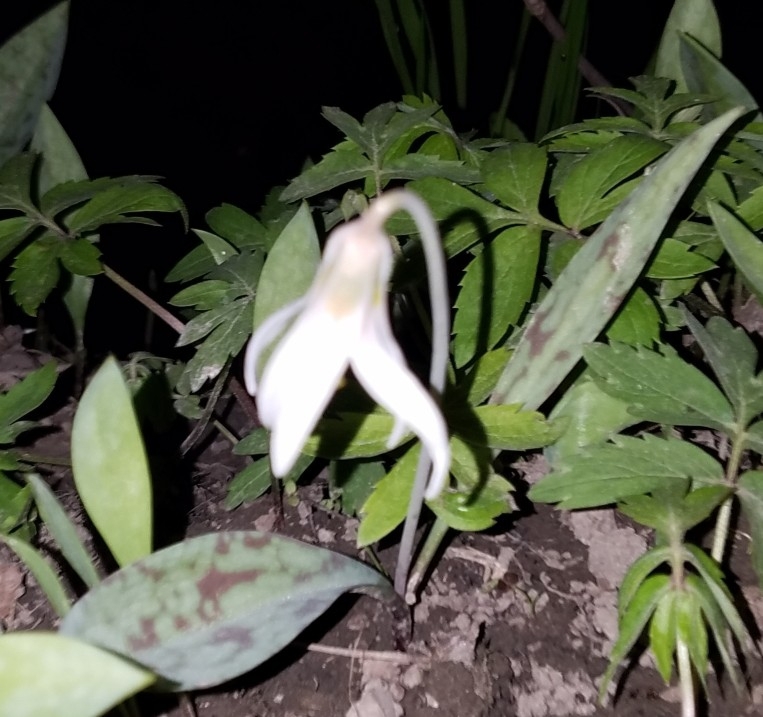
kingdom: Plantae
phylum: Tracheophyta
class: Liliopsida
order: Liliales
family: Liliaceae
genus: Erythronium
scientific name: Erythronium albidum
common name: White trout-lily
